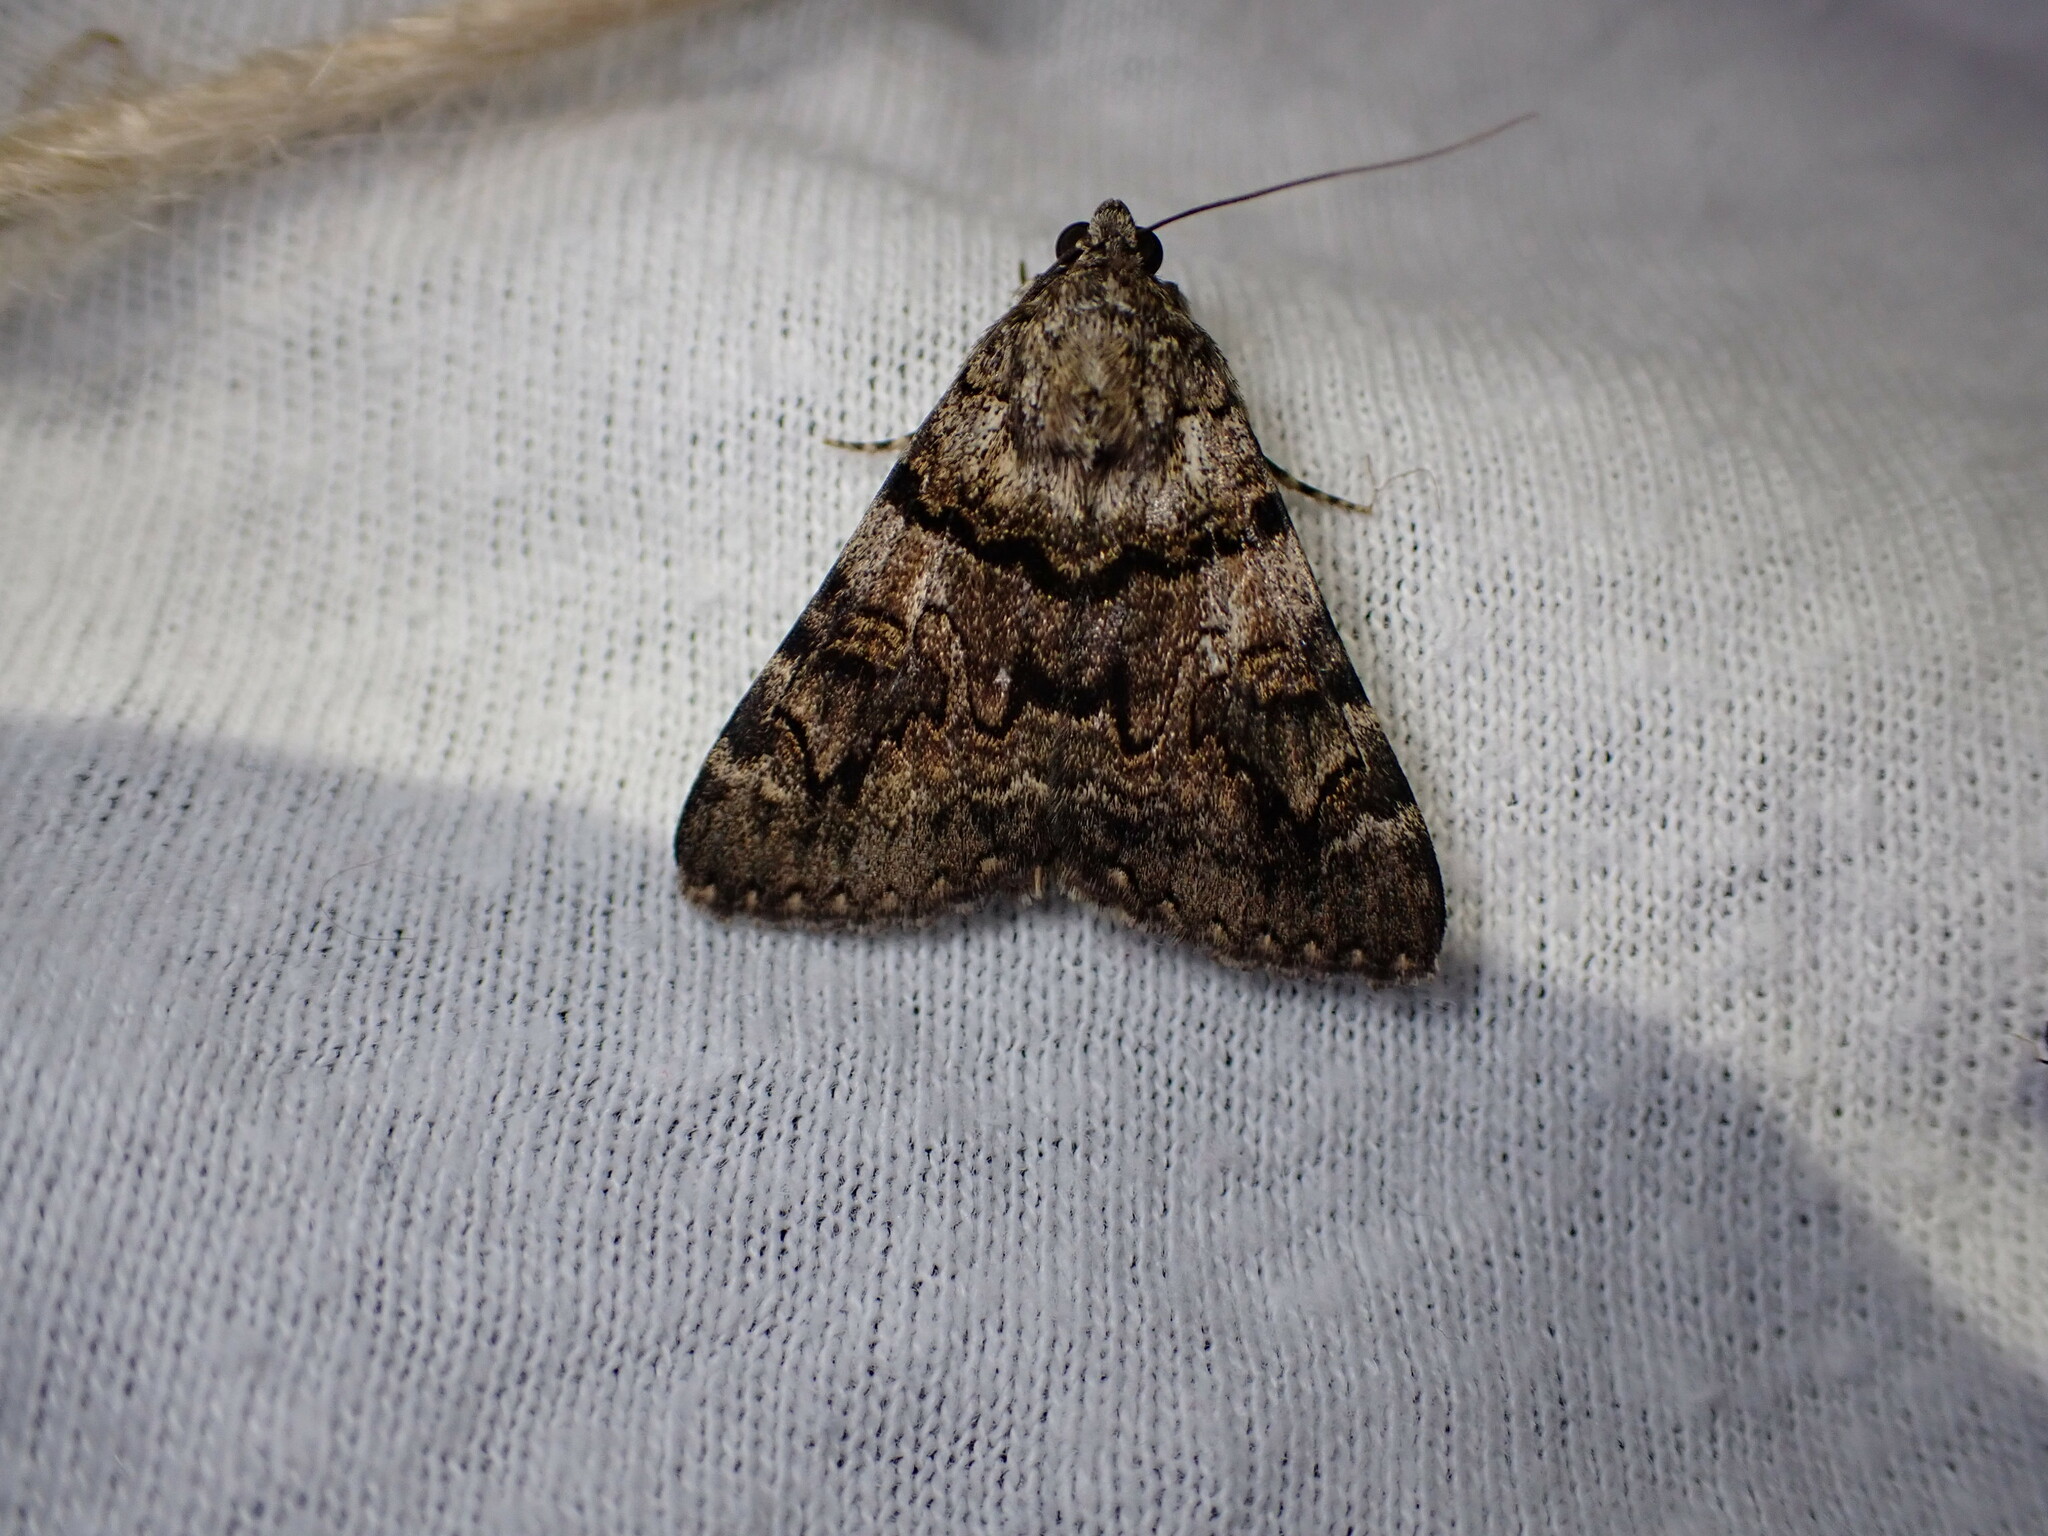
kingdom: Animalia
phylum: Arthropoda
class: Insecta
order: Lepidoptera
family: Erebidae
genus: Catocala
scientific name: Catocala nymphagoga
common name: Oak yellow underwing
